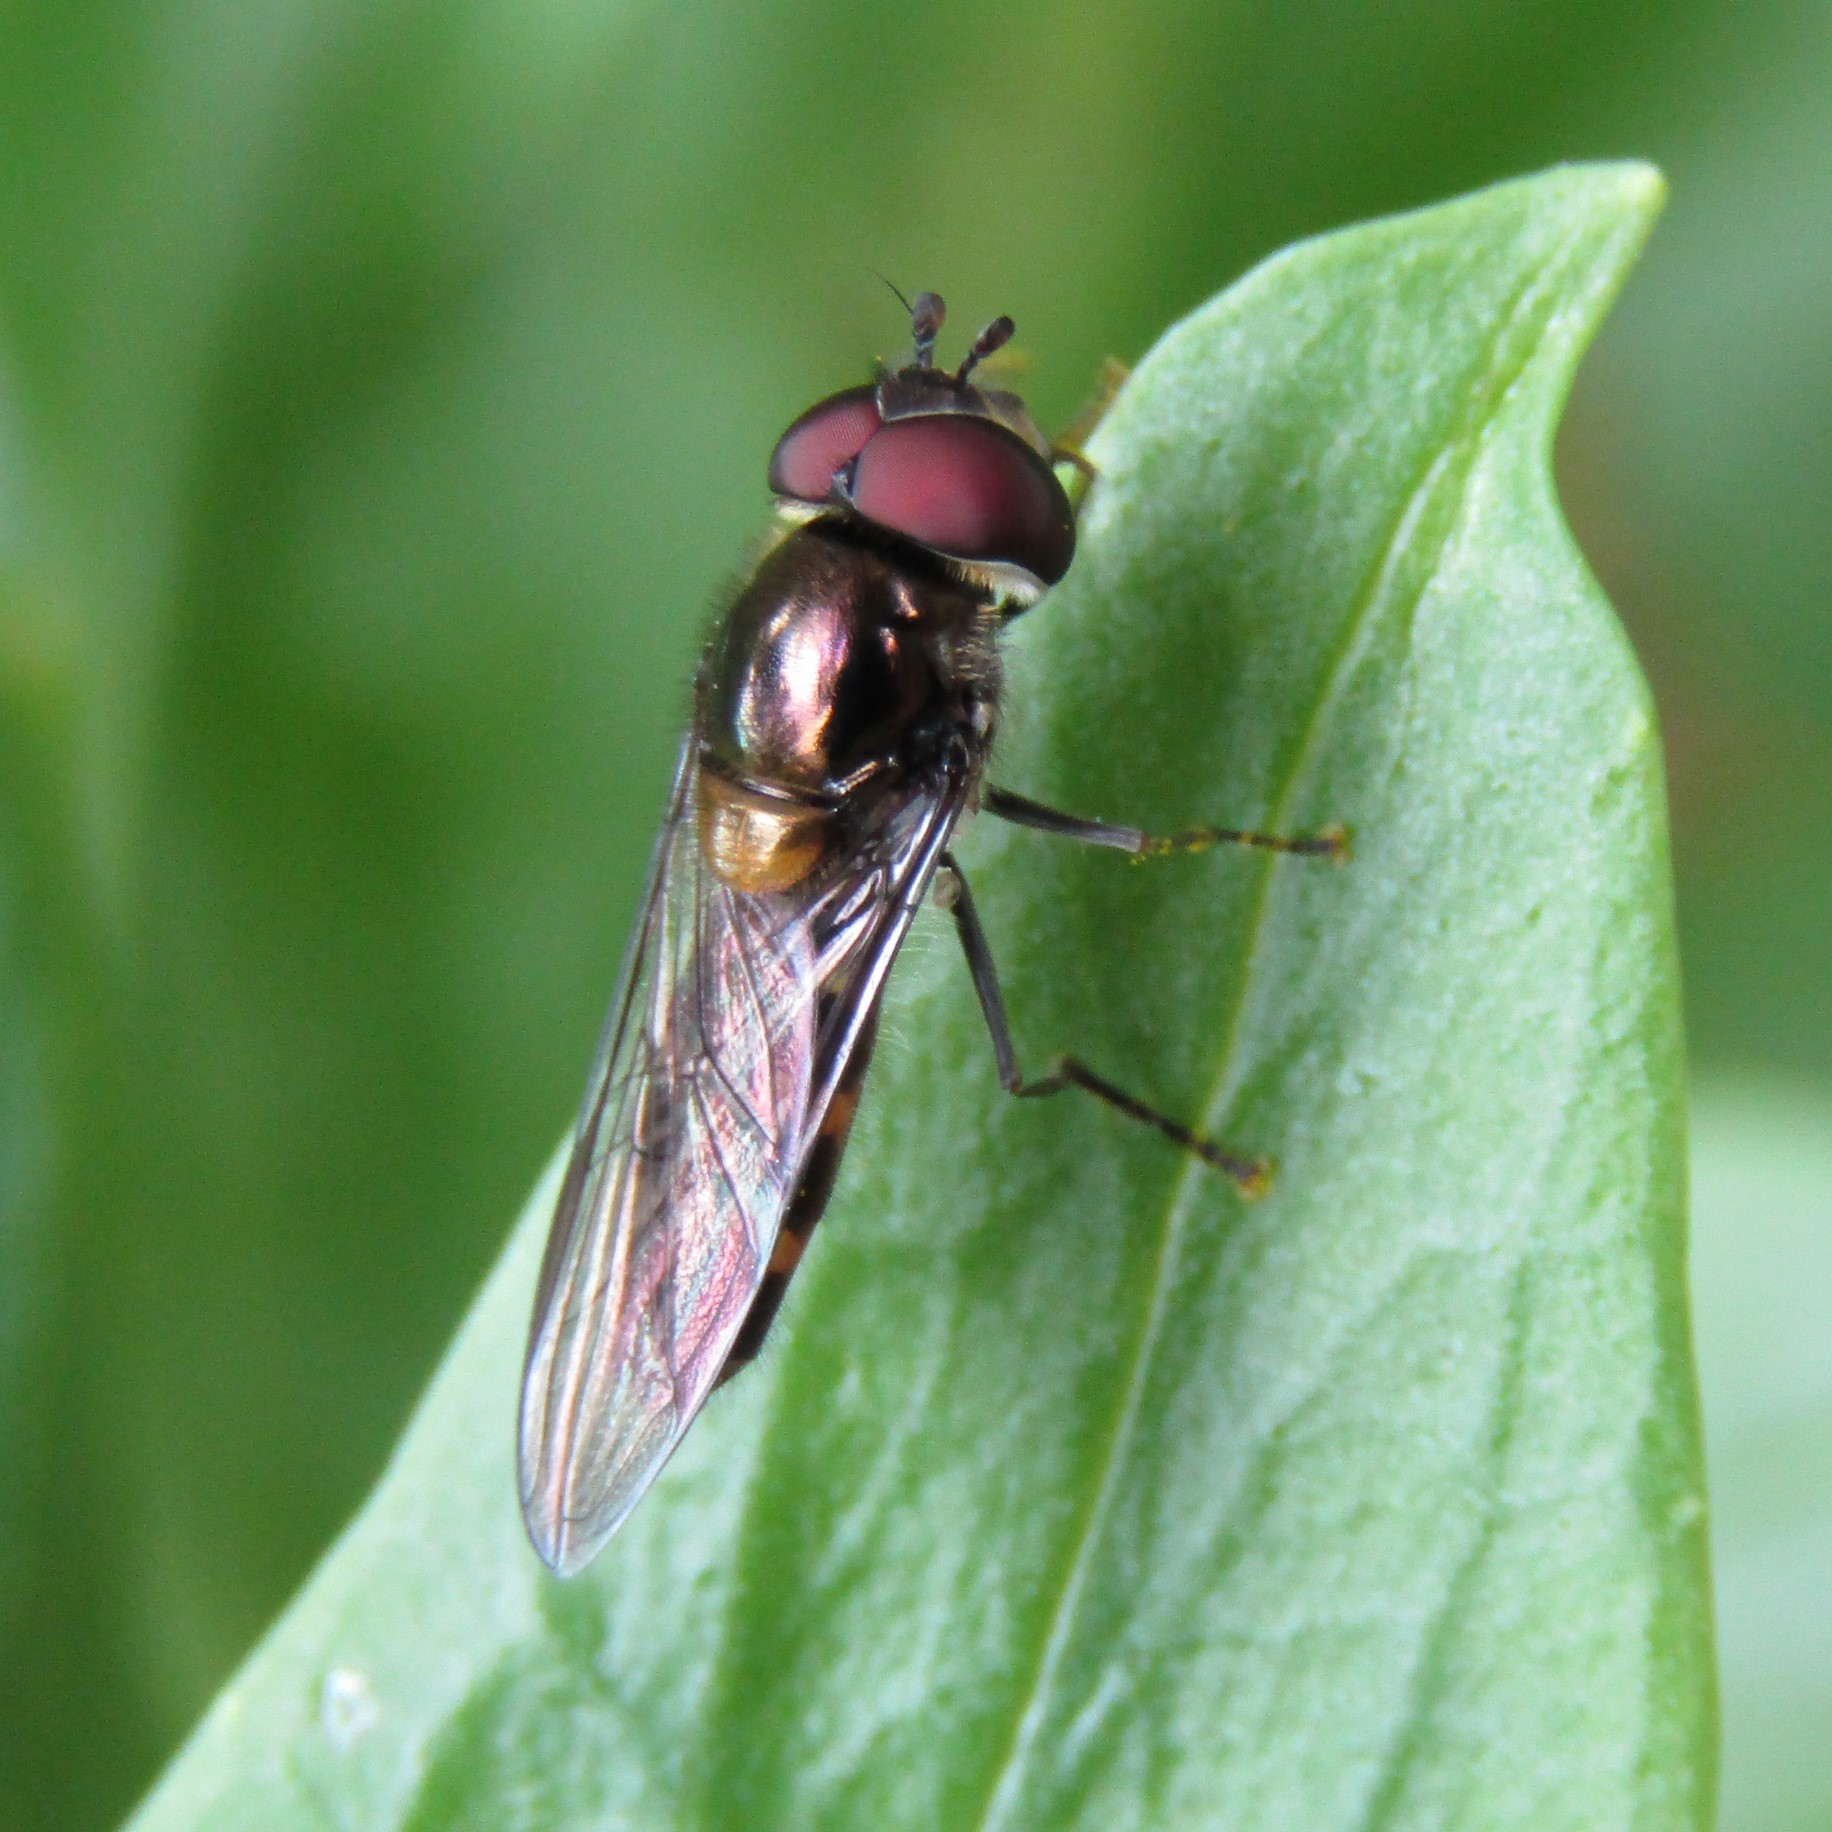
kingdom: Animalia
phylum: Arthropoda
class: Insecta
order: Diptera
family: Syrphidae
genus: Melangyna
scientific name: Melangyna novaezelandiae
